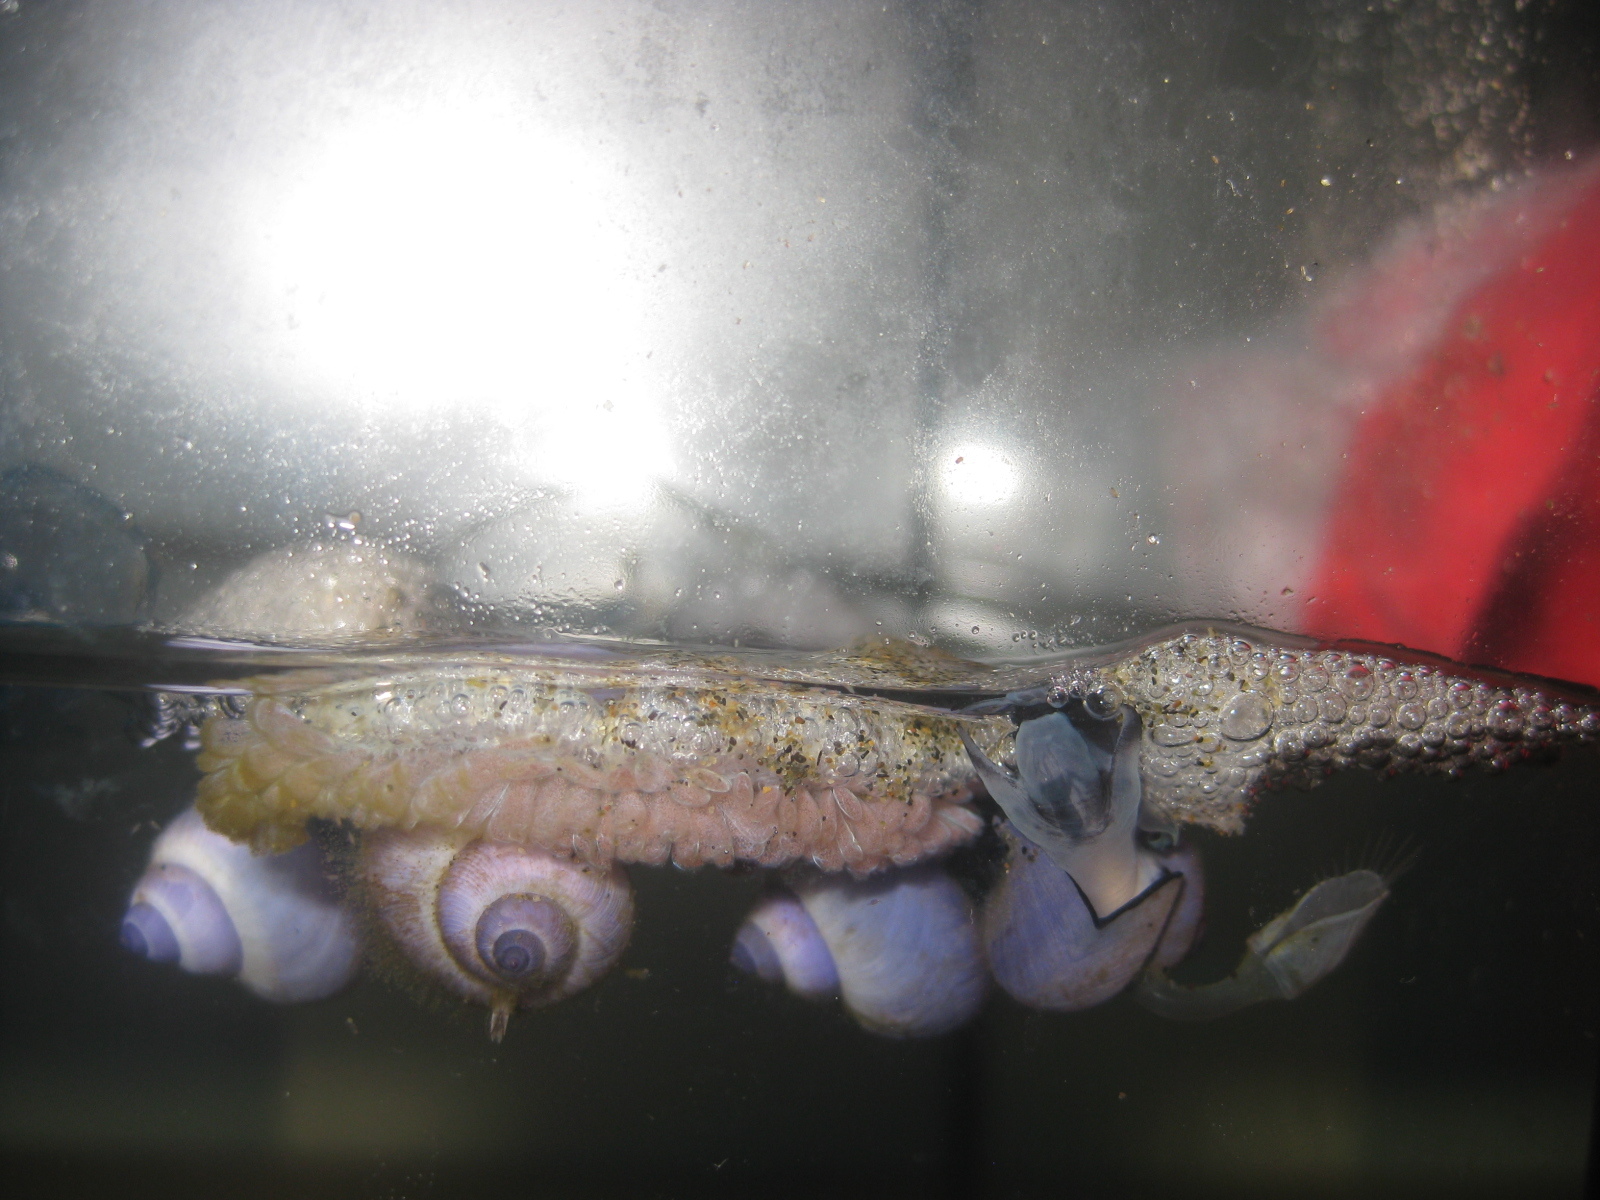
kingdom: Animalia
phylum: Mollusca
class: Gastropoda
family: Epitoniidae
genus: Janthina
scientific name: Janthina exigua
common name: Dwarf janthina
